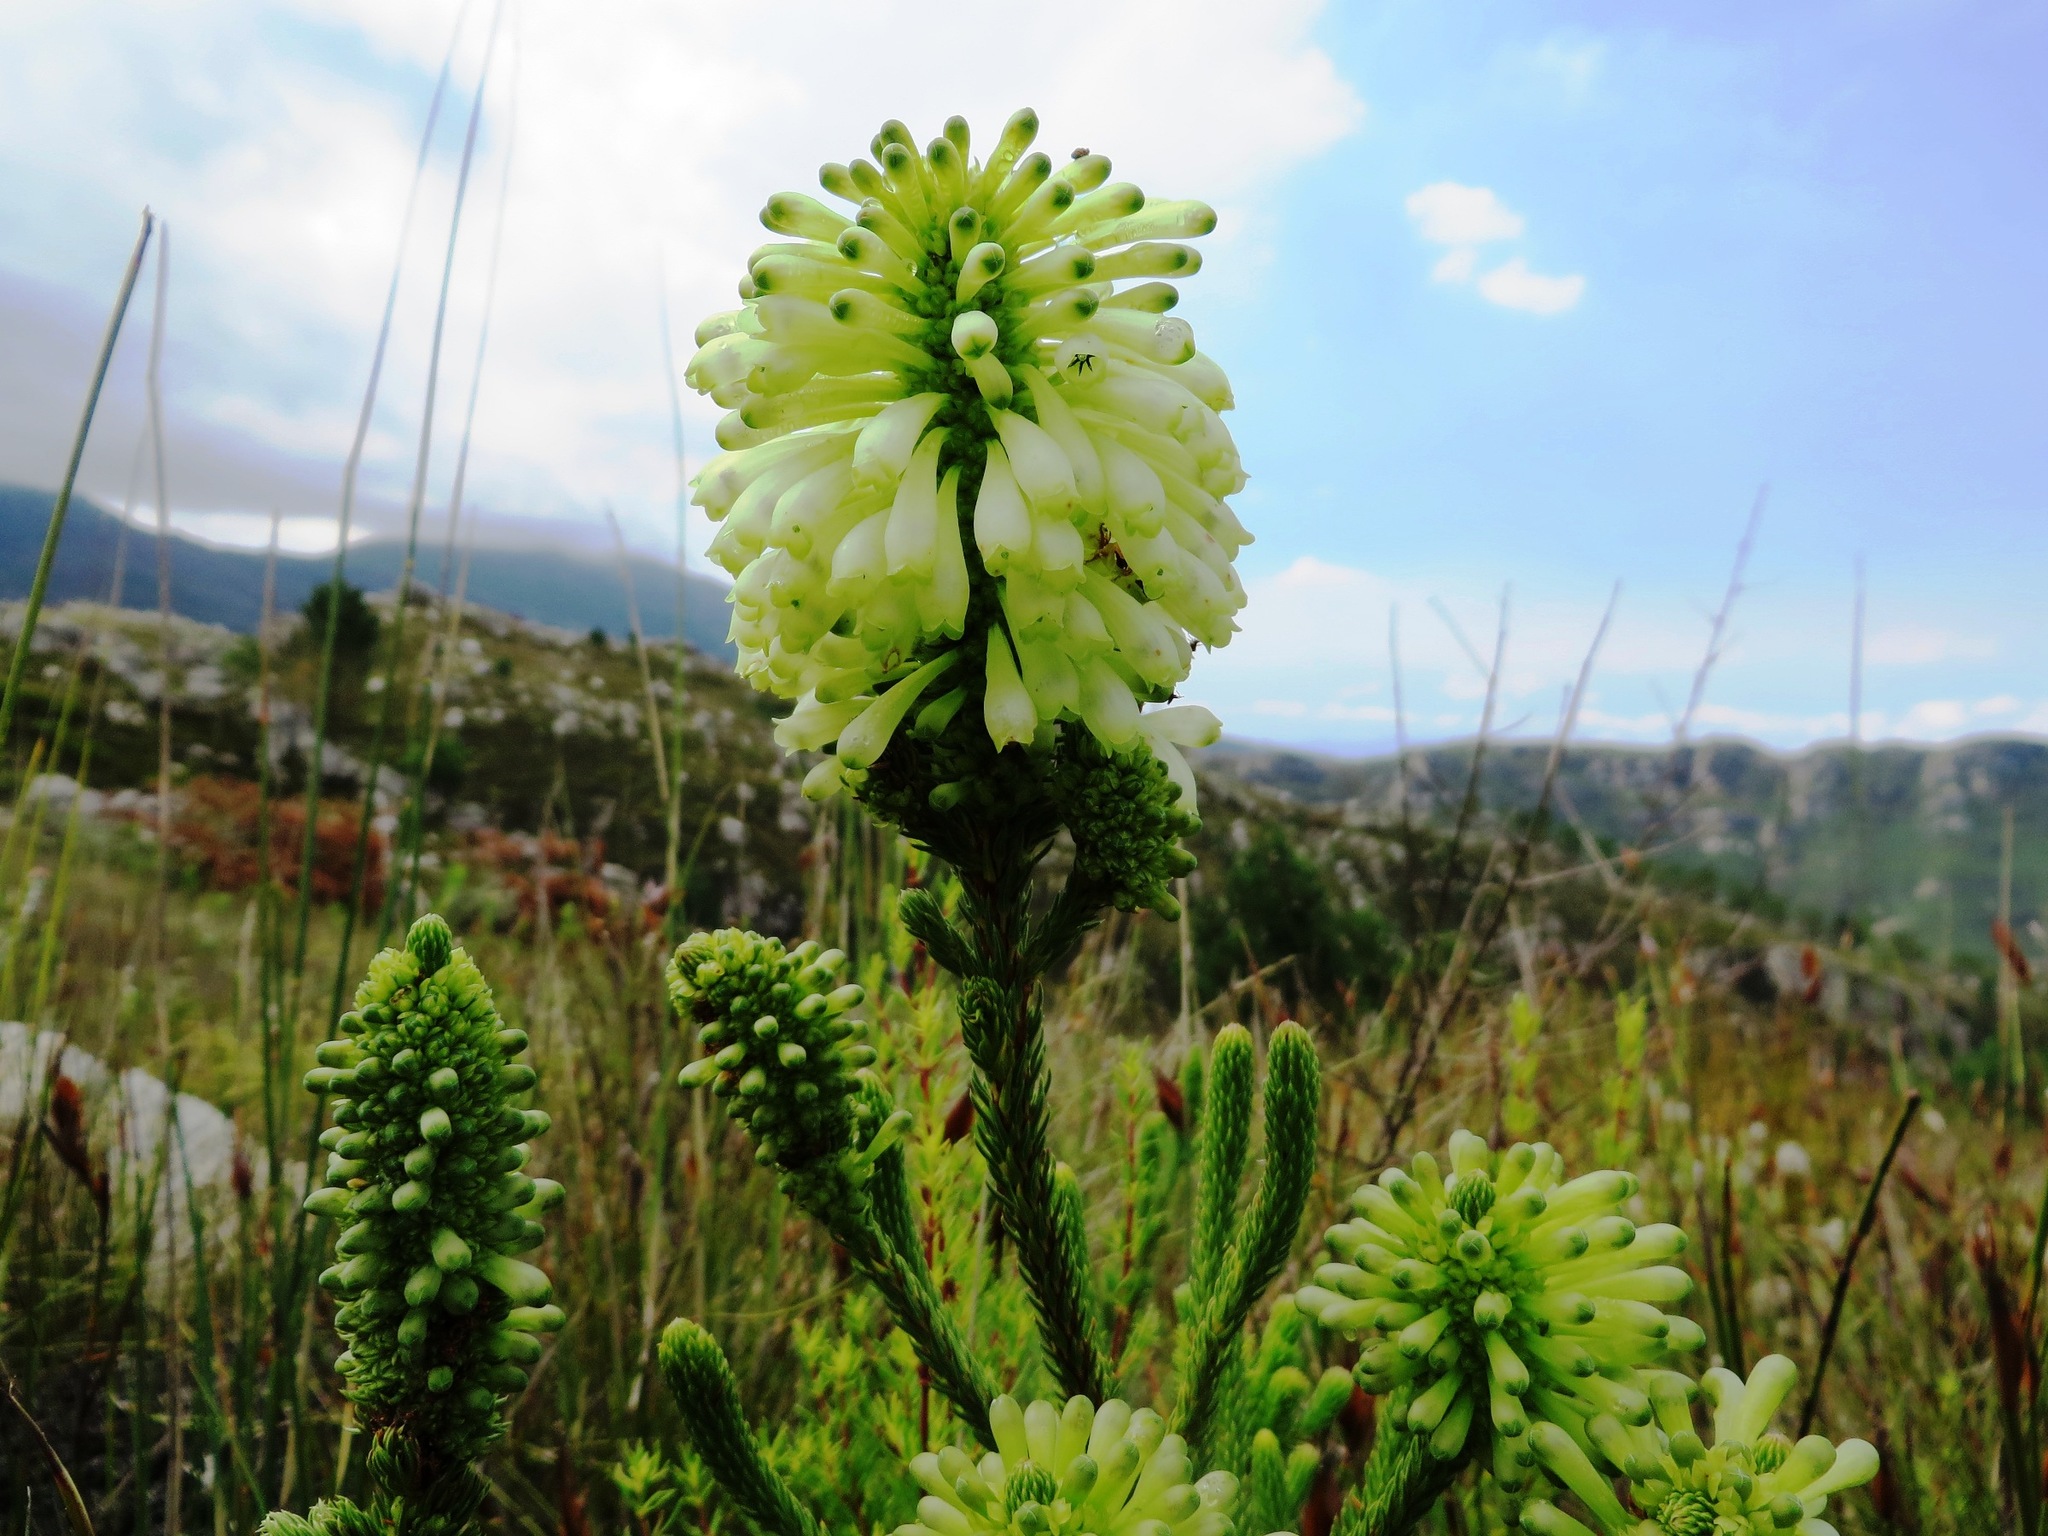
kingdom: Plantae
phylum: Tracheophyta
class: Magnoliopsida
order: Ericales
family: Ericaceae
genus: Erica
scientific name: Erica sessiliflora
